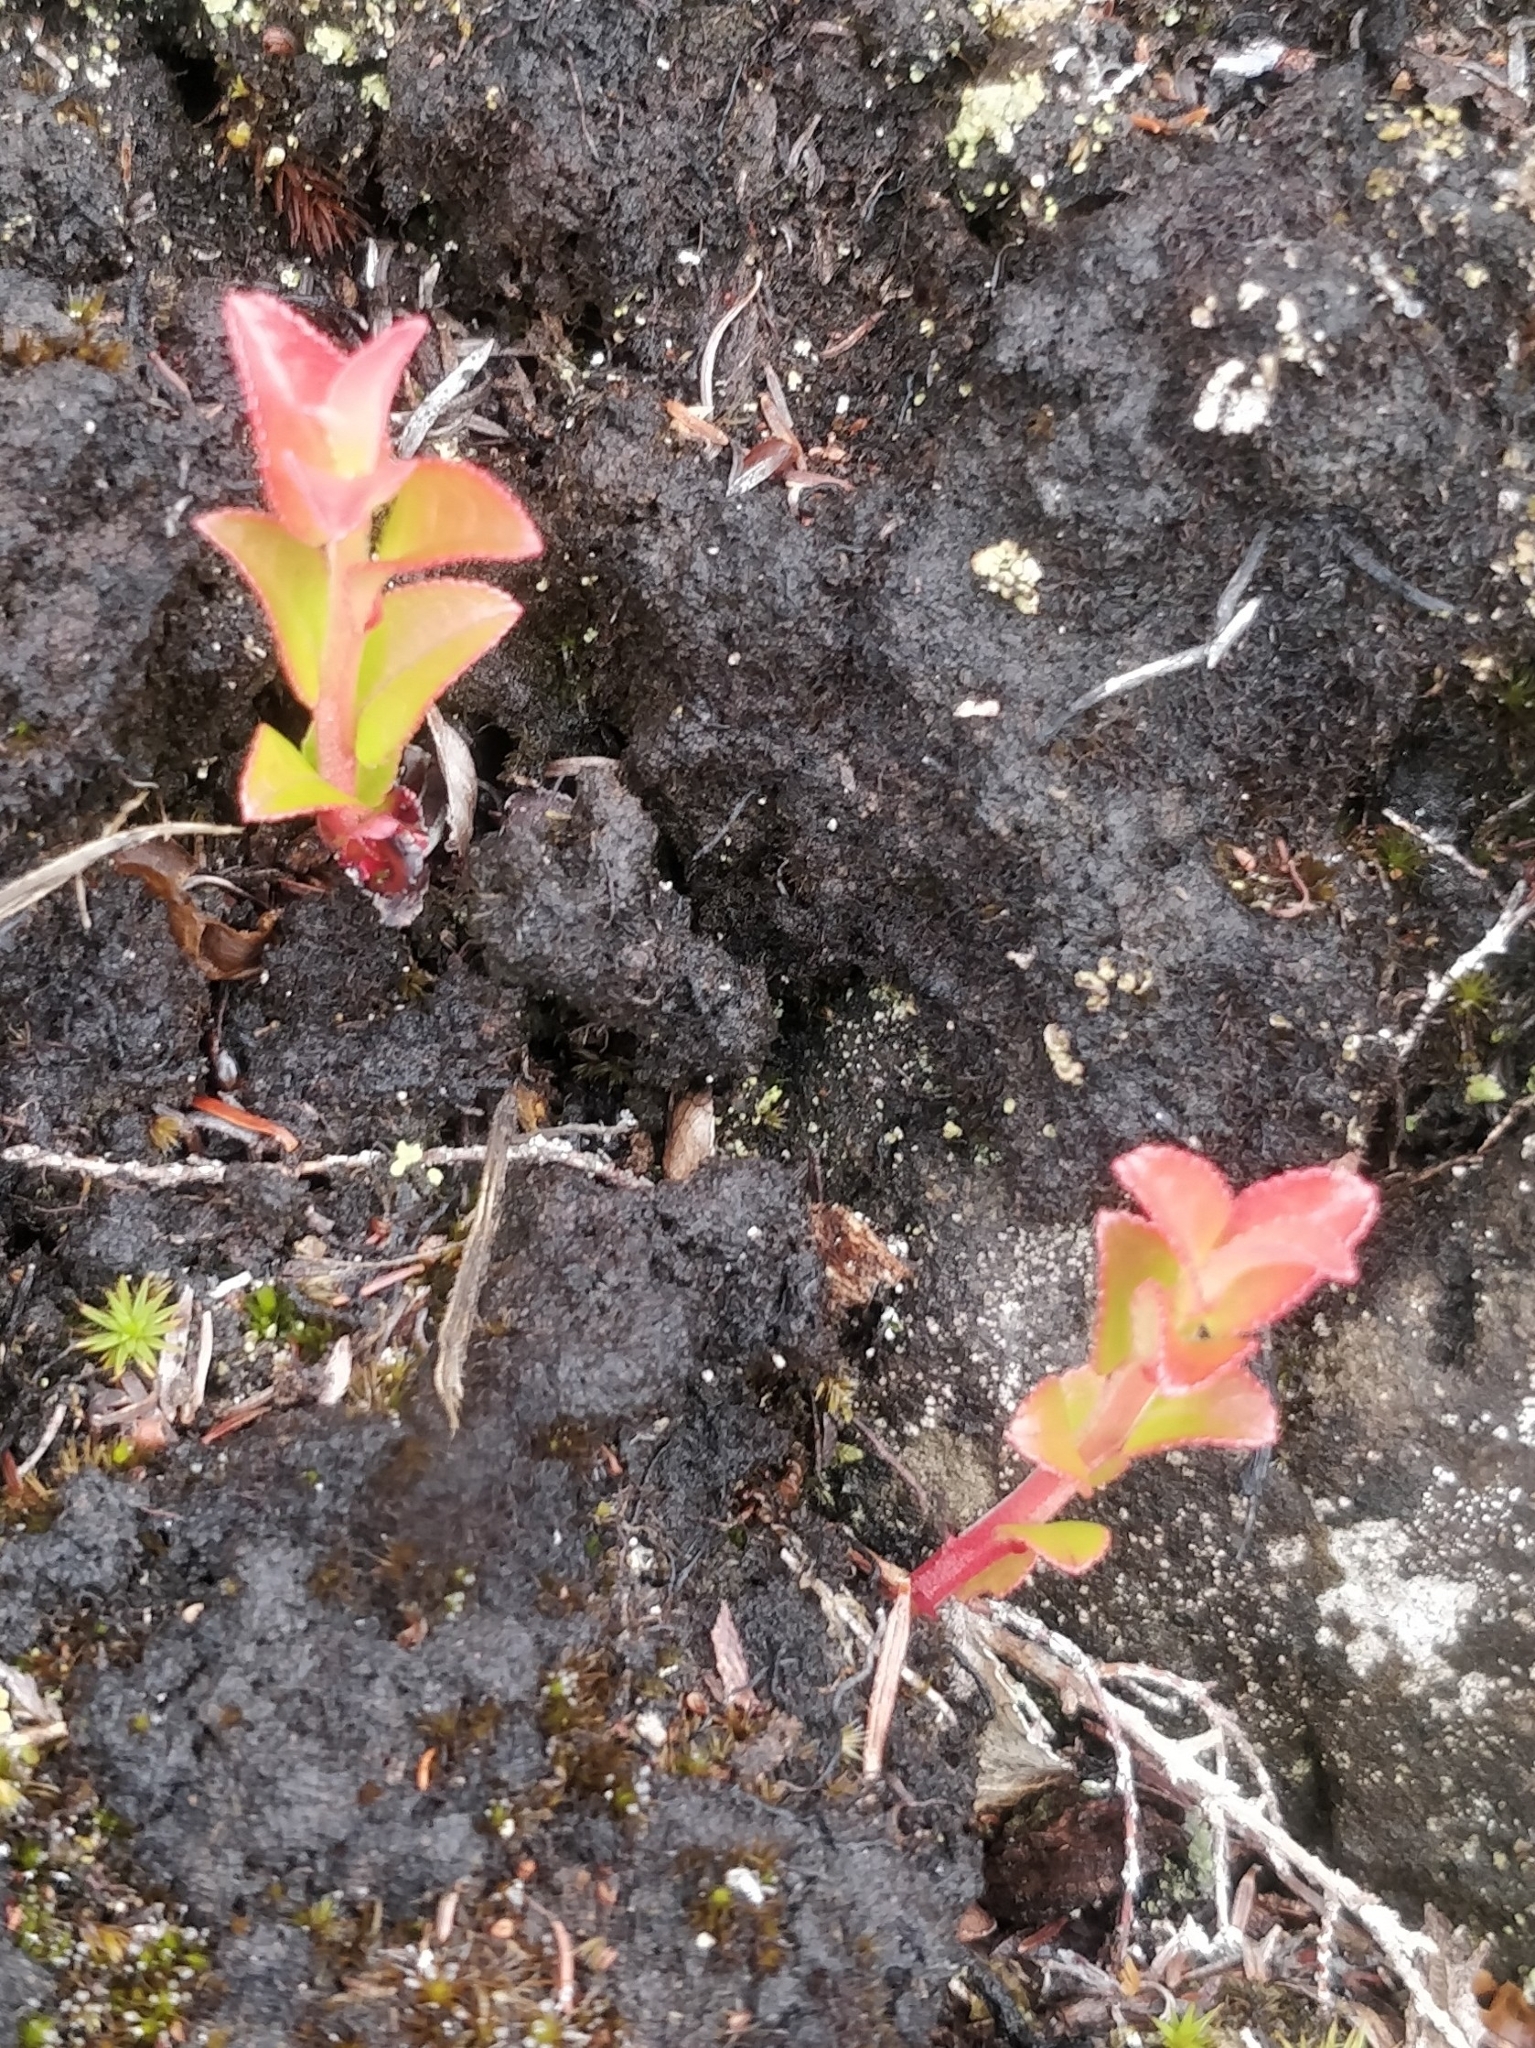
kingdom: Plantae
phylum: Tracheophyta
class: Magnoliopsida
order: Ericales
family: Ericaceae
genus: Vaccinium
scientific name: Vaccinium padifolium
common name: Madeiran blueberry
